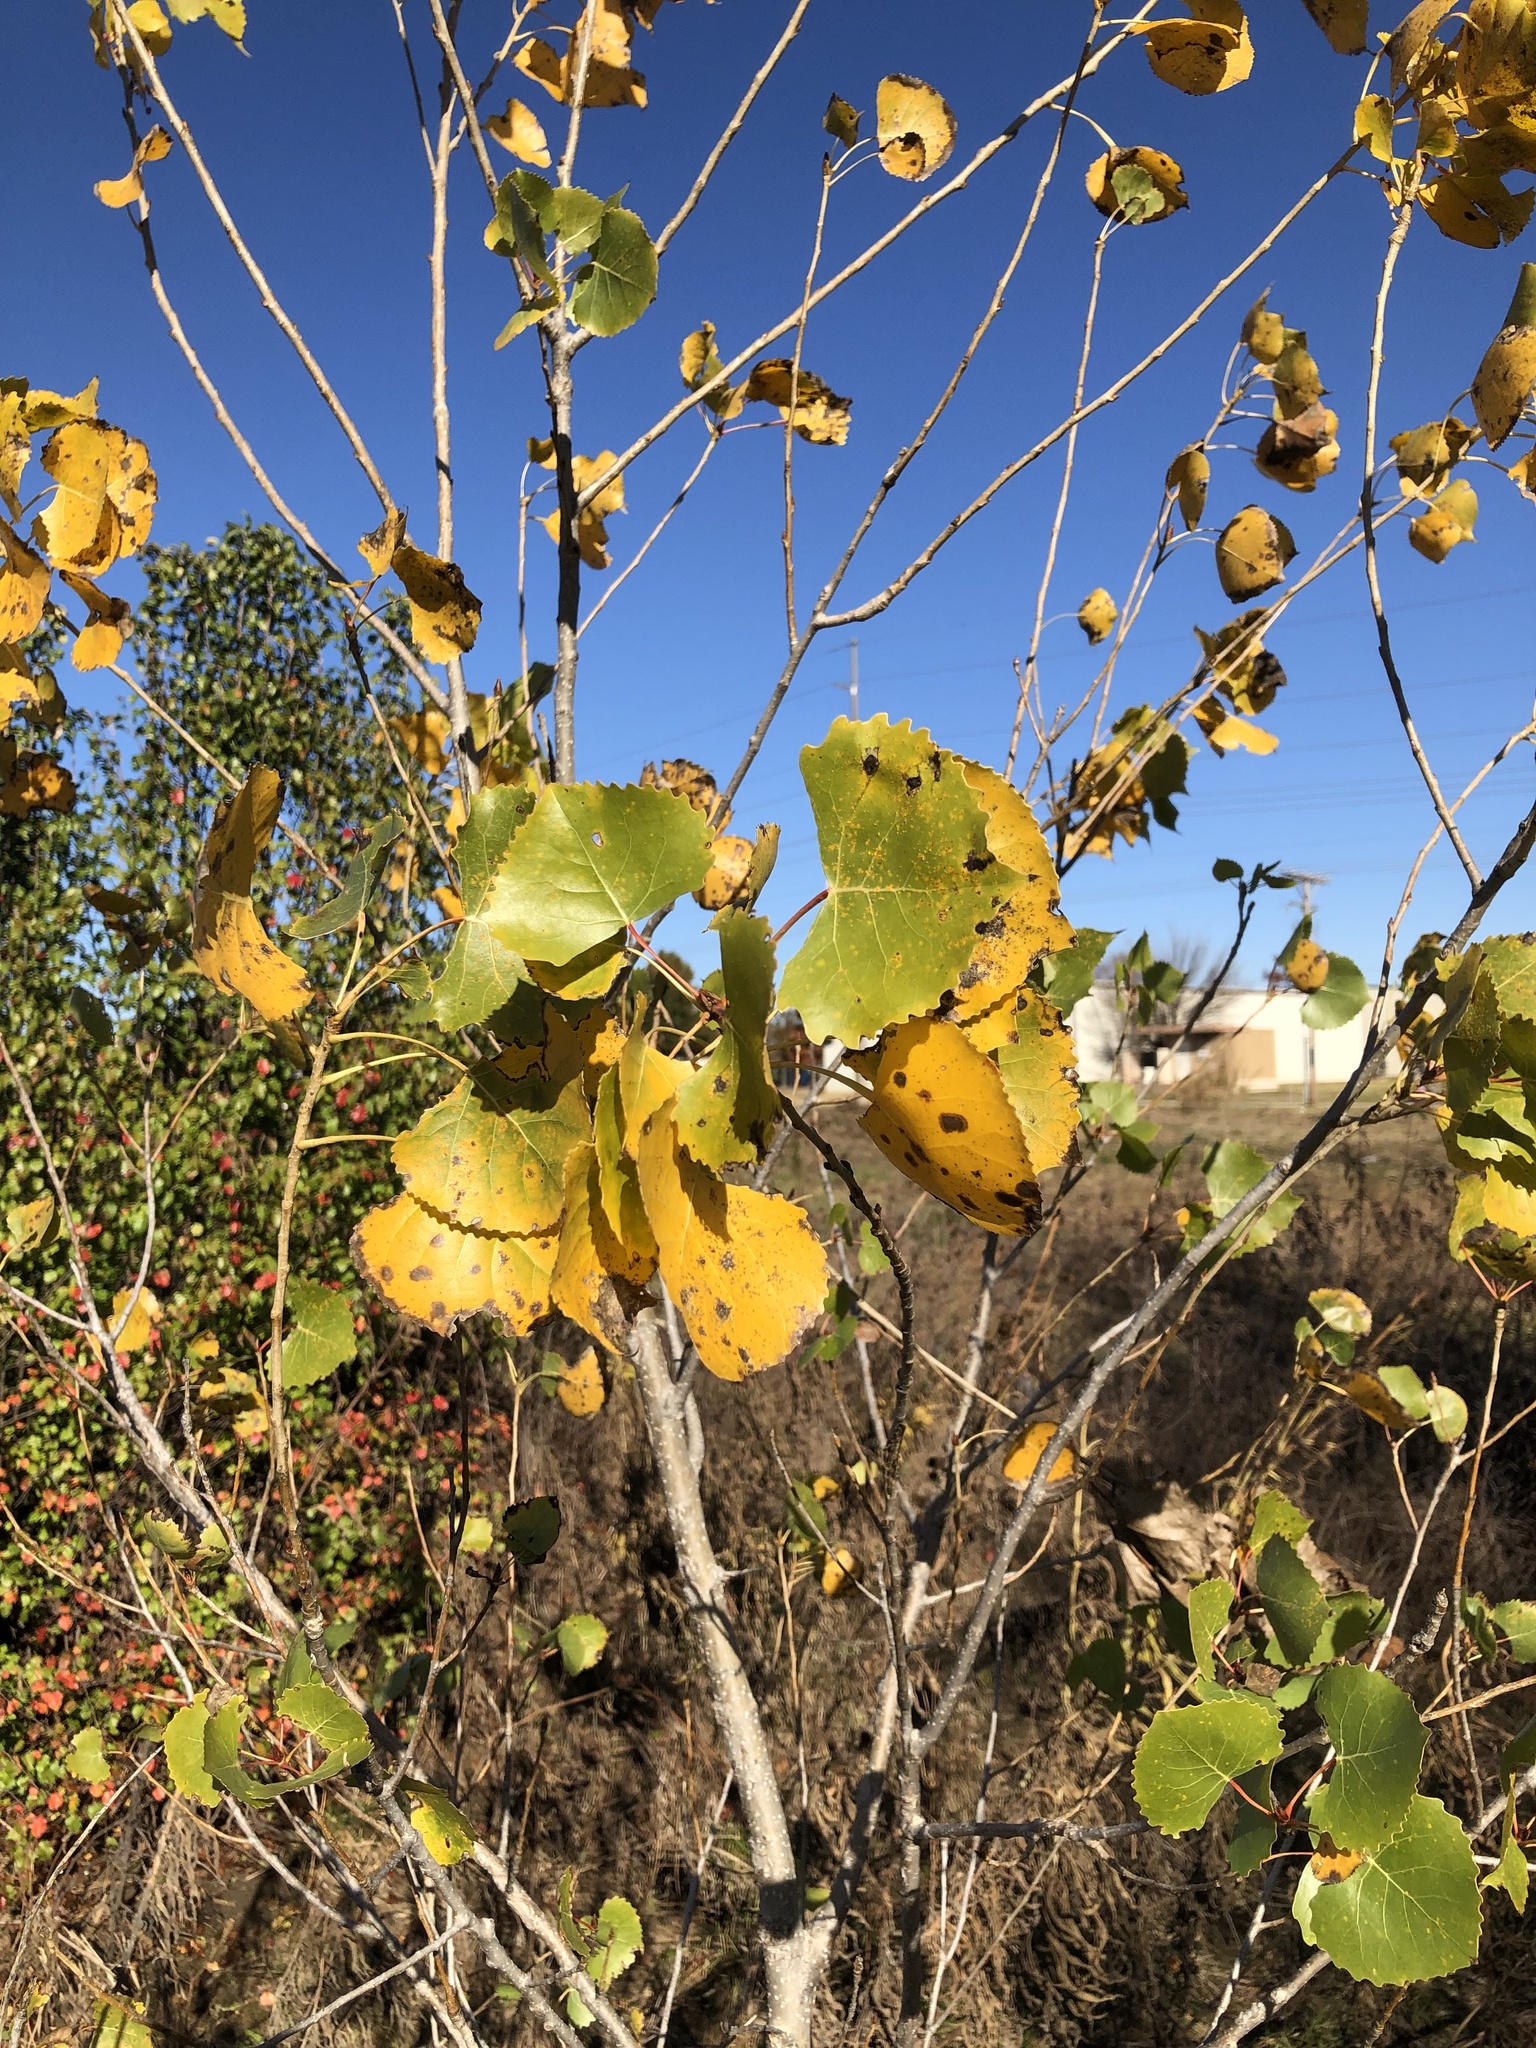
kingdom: Plantae
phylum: Tracheophyta
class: Magnoliopsida
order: Malpighiales
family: Salicaceae
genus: Populus
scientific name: Populus deltoides
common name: Eastern cottonwood
